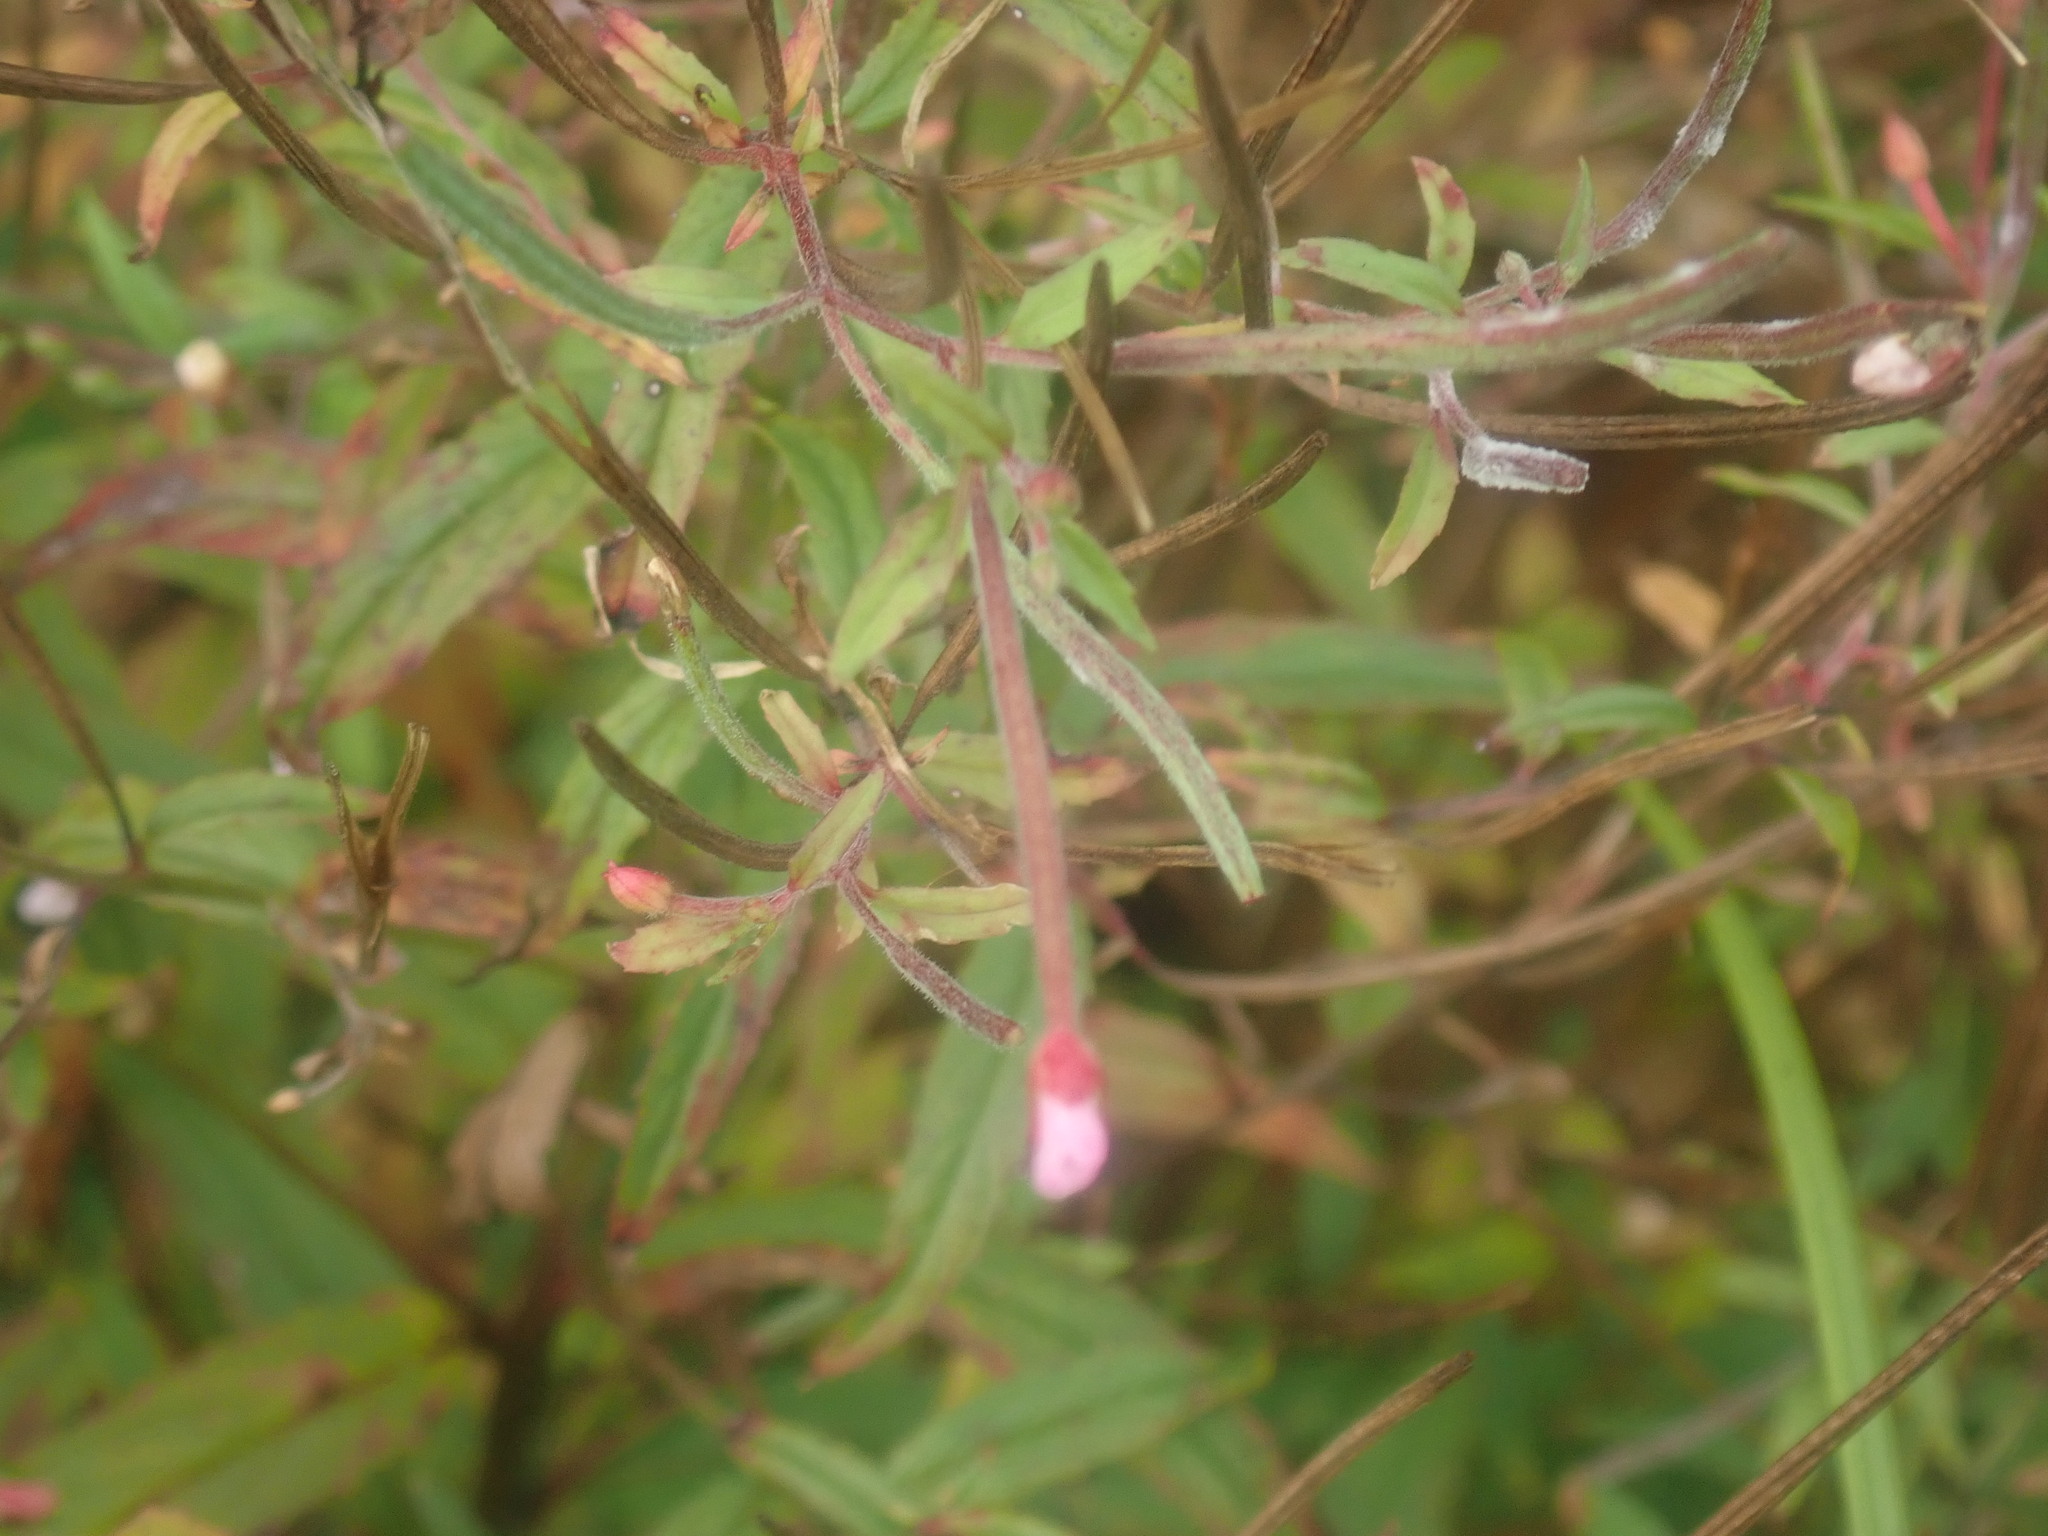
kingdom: Plantae
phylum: Tracheophyta
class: Magnoliopsida
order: Myrtales
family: Onagraceae
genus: Epilobium
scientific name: Epilobium
